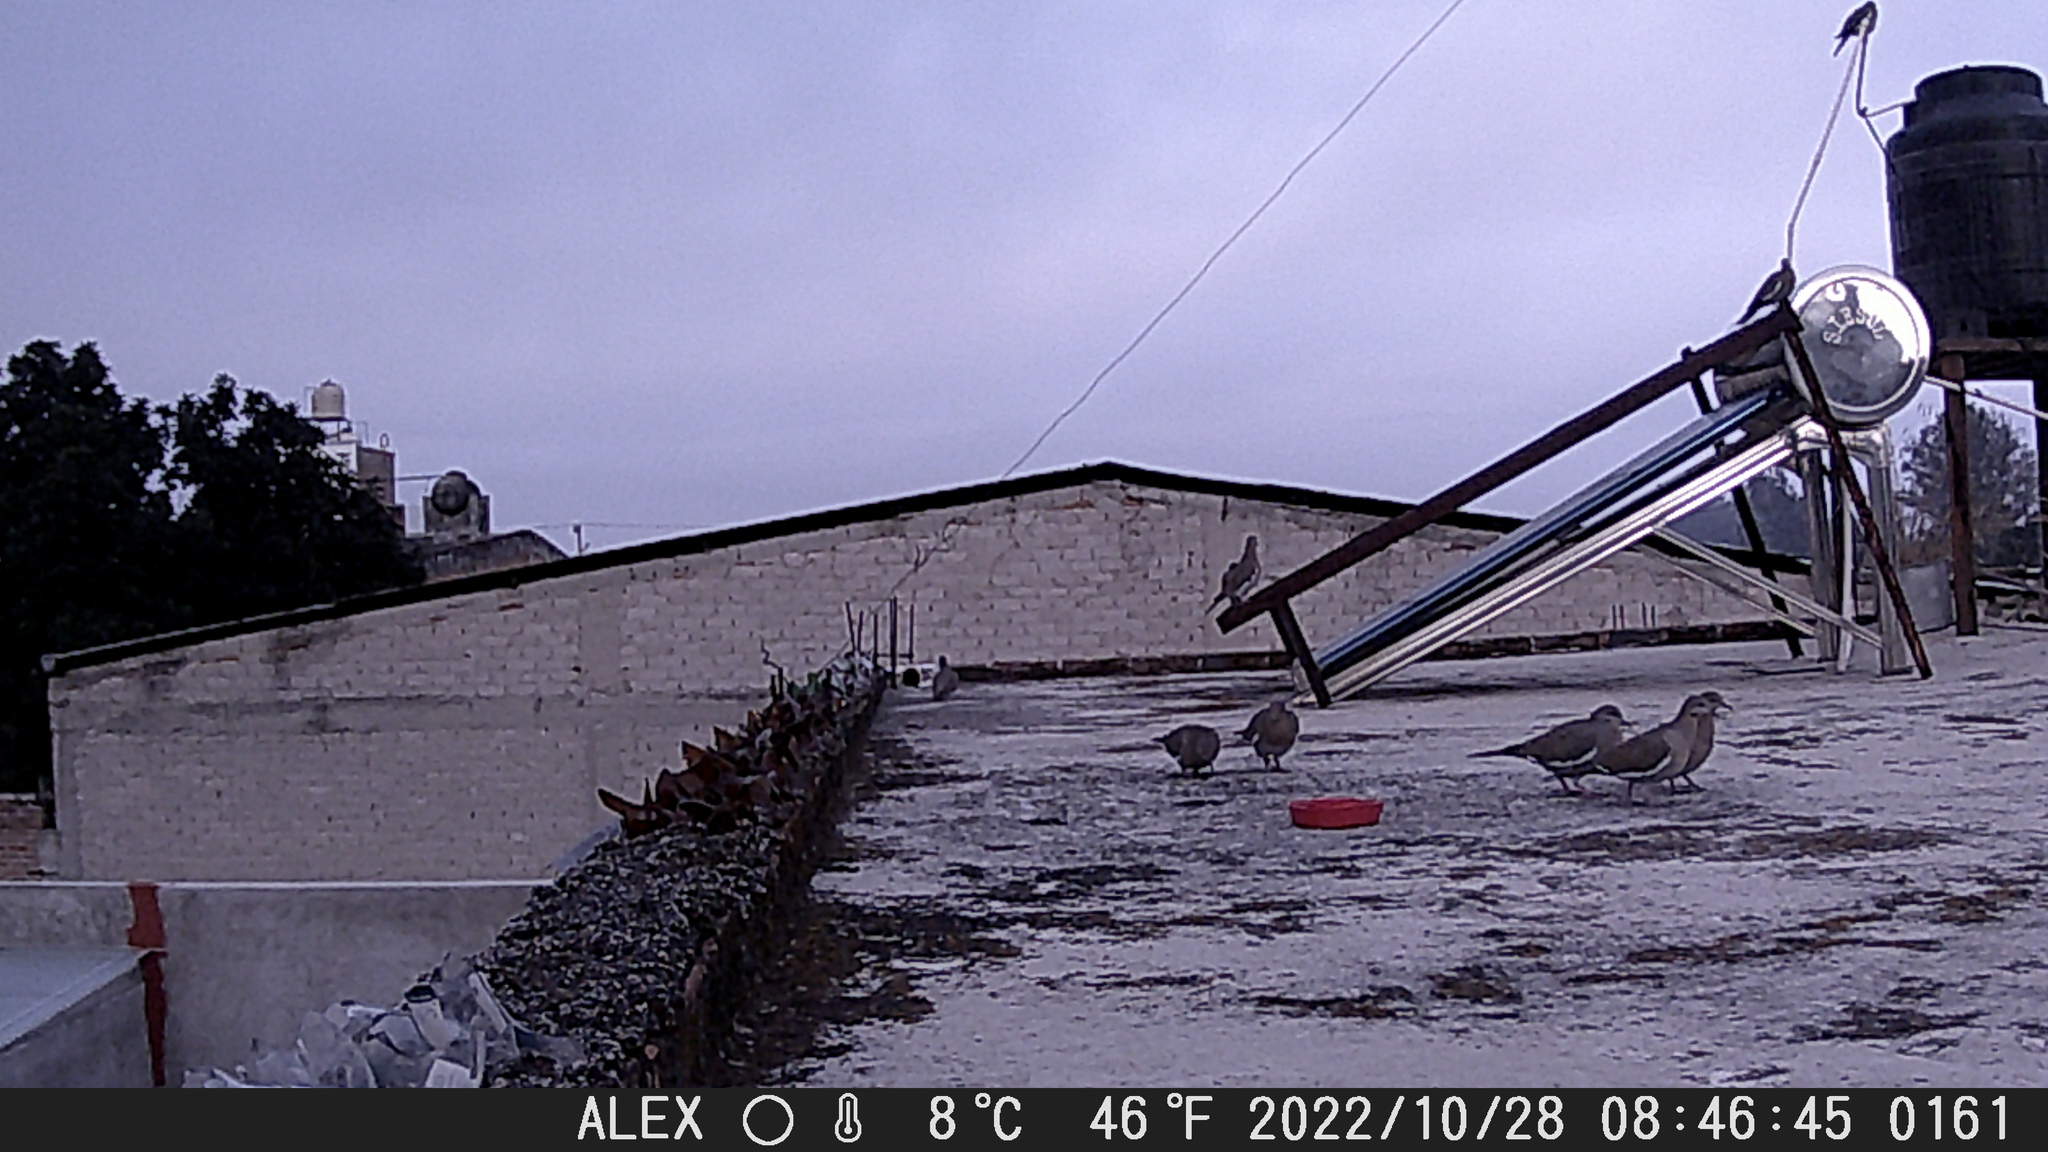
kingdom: Animalia
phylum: Chordata
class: Aves
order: Columbiformes
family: Columbidae
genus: Zenaida
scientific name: Zenaida asiatica
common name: White-winged dove
